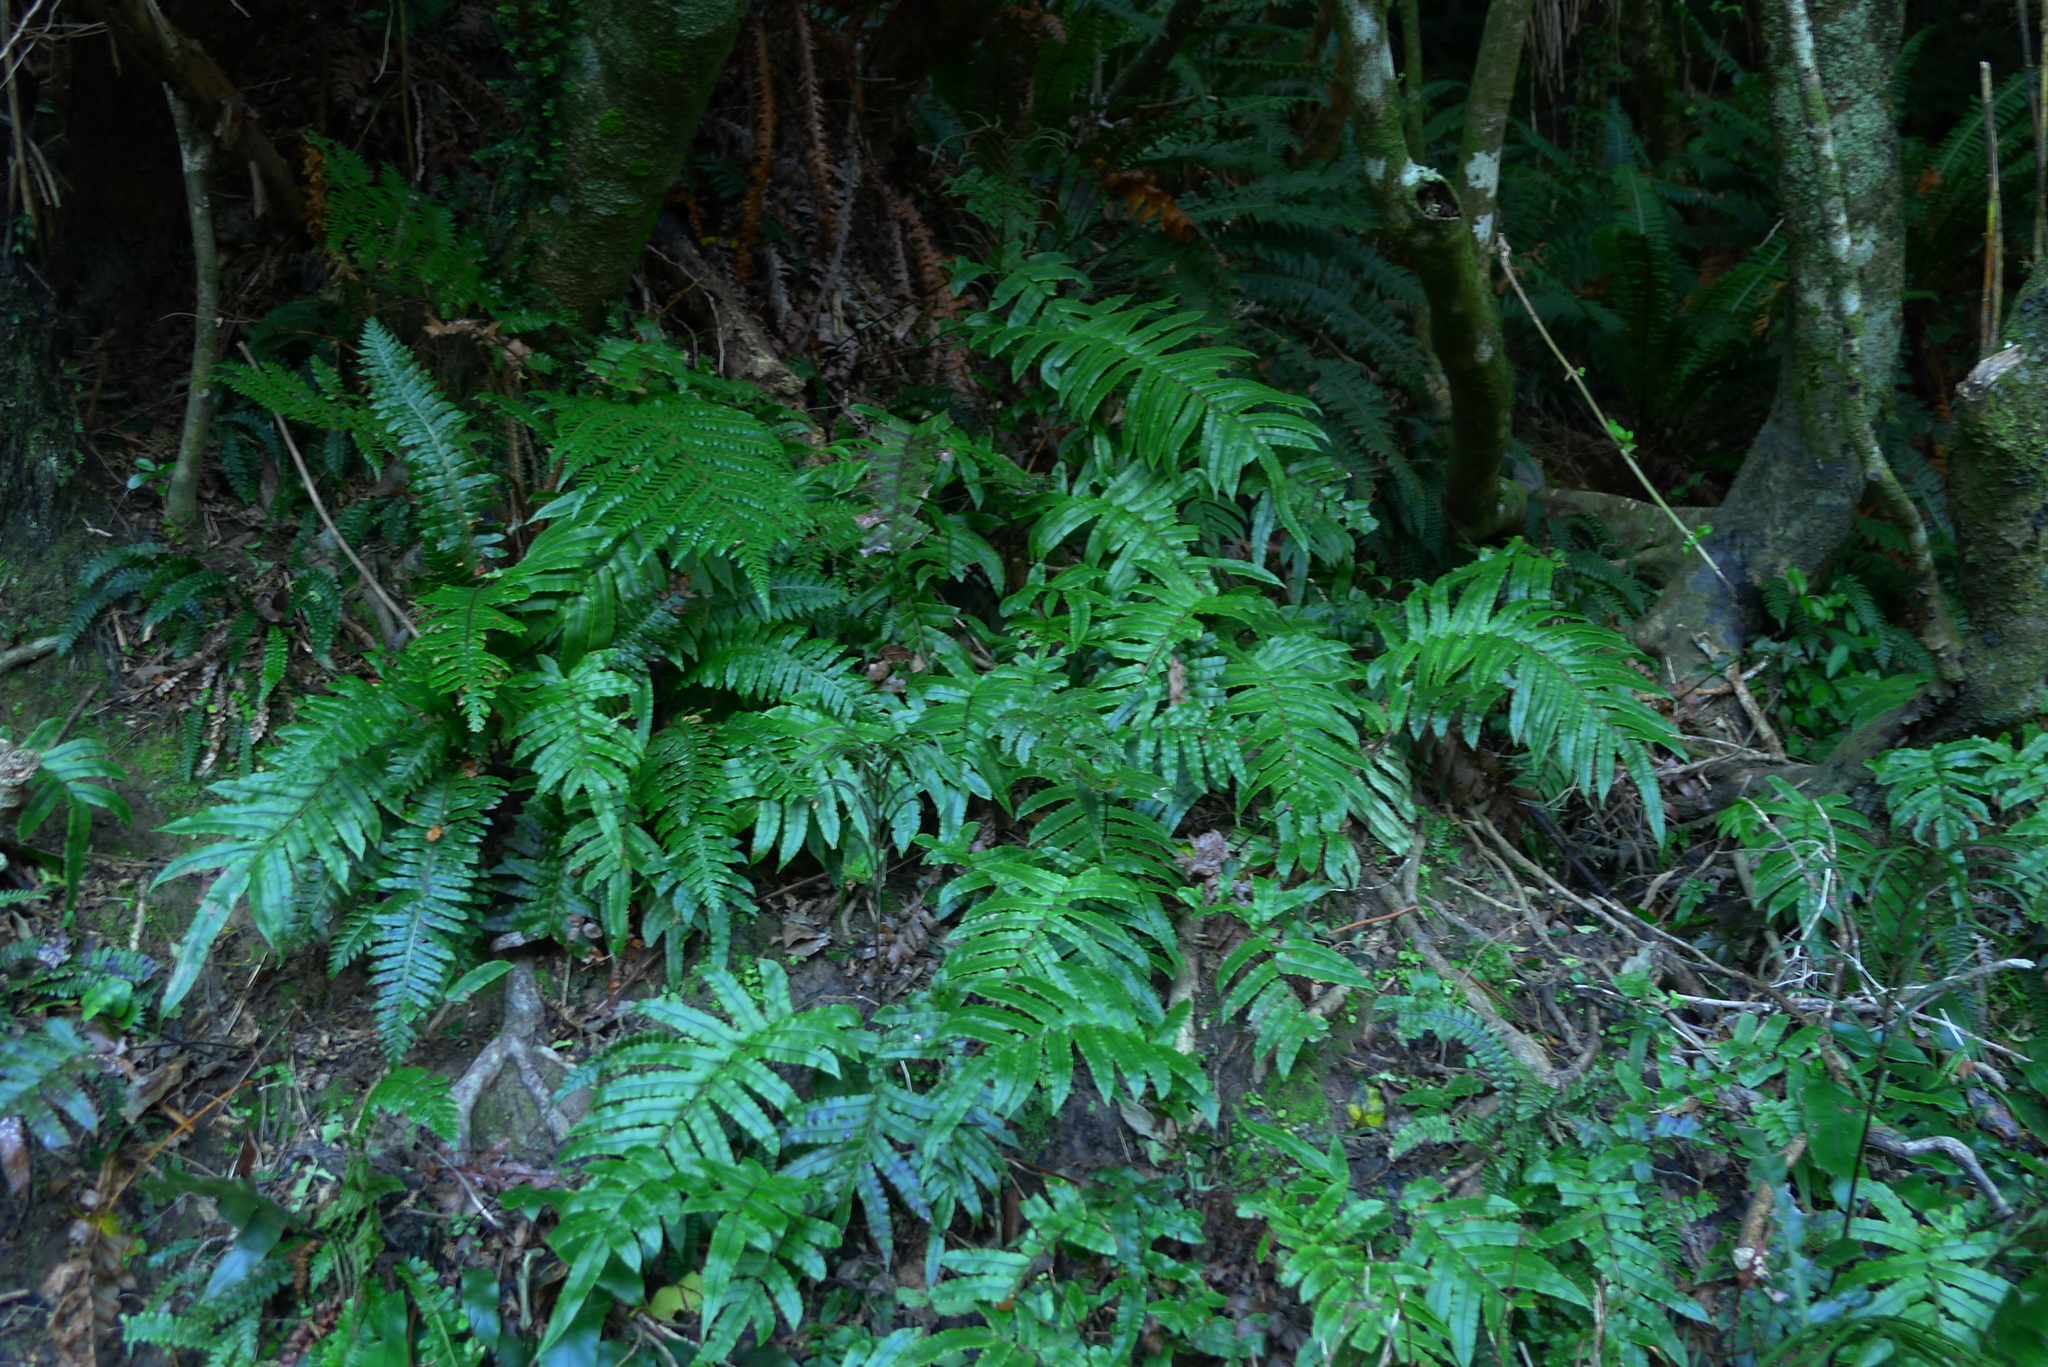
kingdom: Plantae
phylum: Tracheophyta
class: Polypodiopsida
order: Polypodiales
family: Blechnaceae
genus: Parablechnum
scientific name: Parablechnum minus
